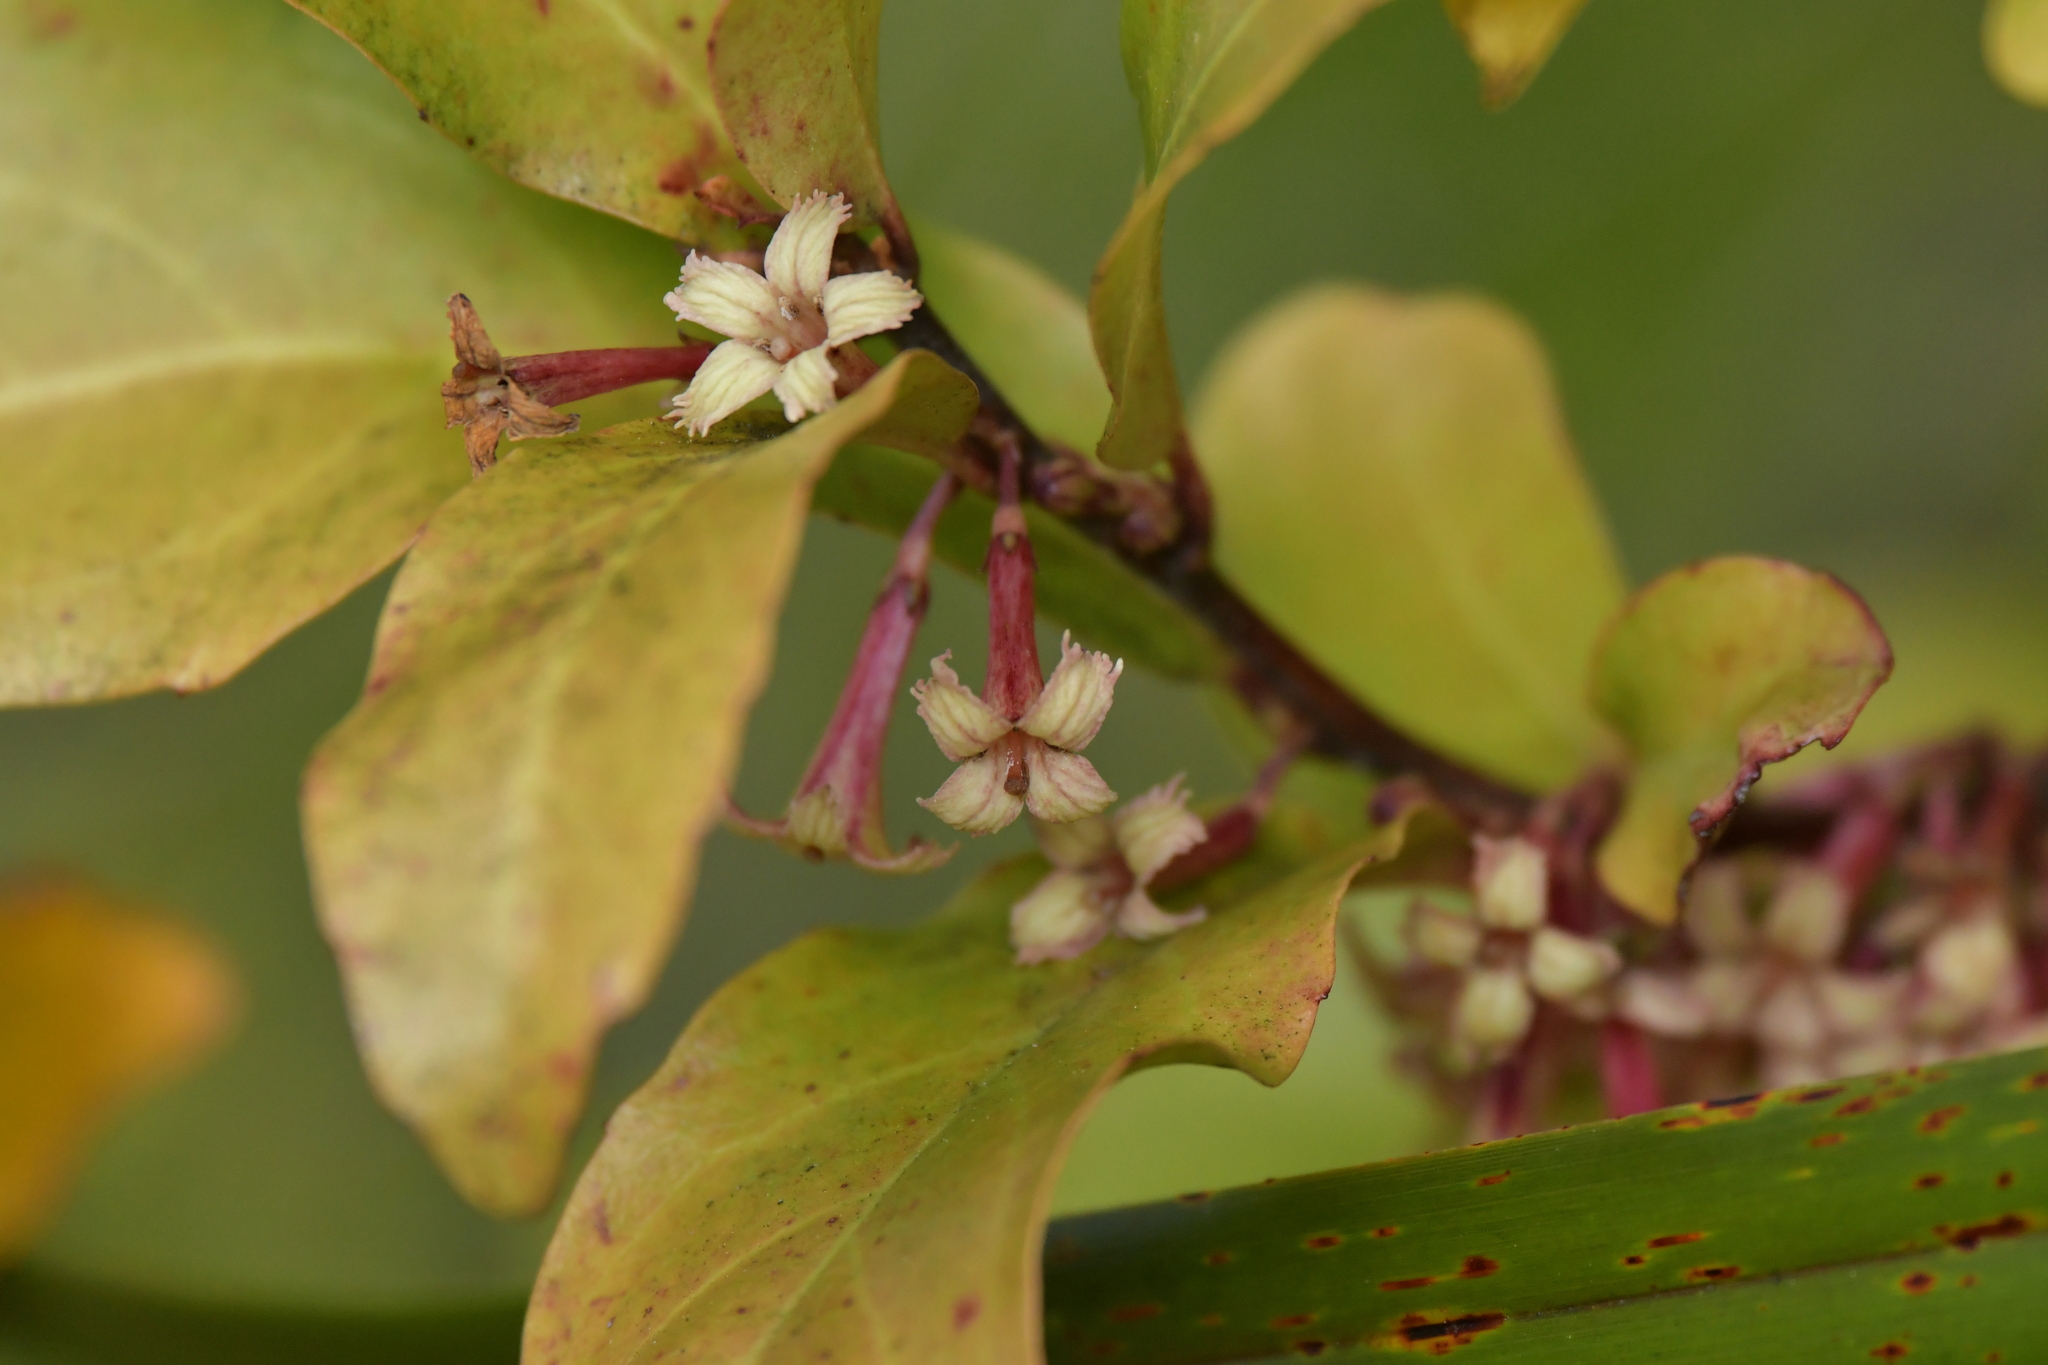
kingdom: Plantae
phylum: Tracheophyta
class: Magnoliopsida
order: Asterales
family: Alseuosmiaceae
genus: Alseuosmia
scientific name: Alseuosmia quercifolia
